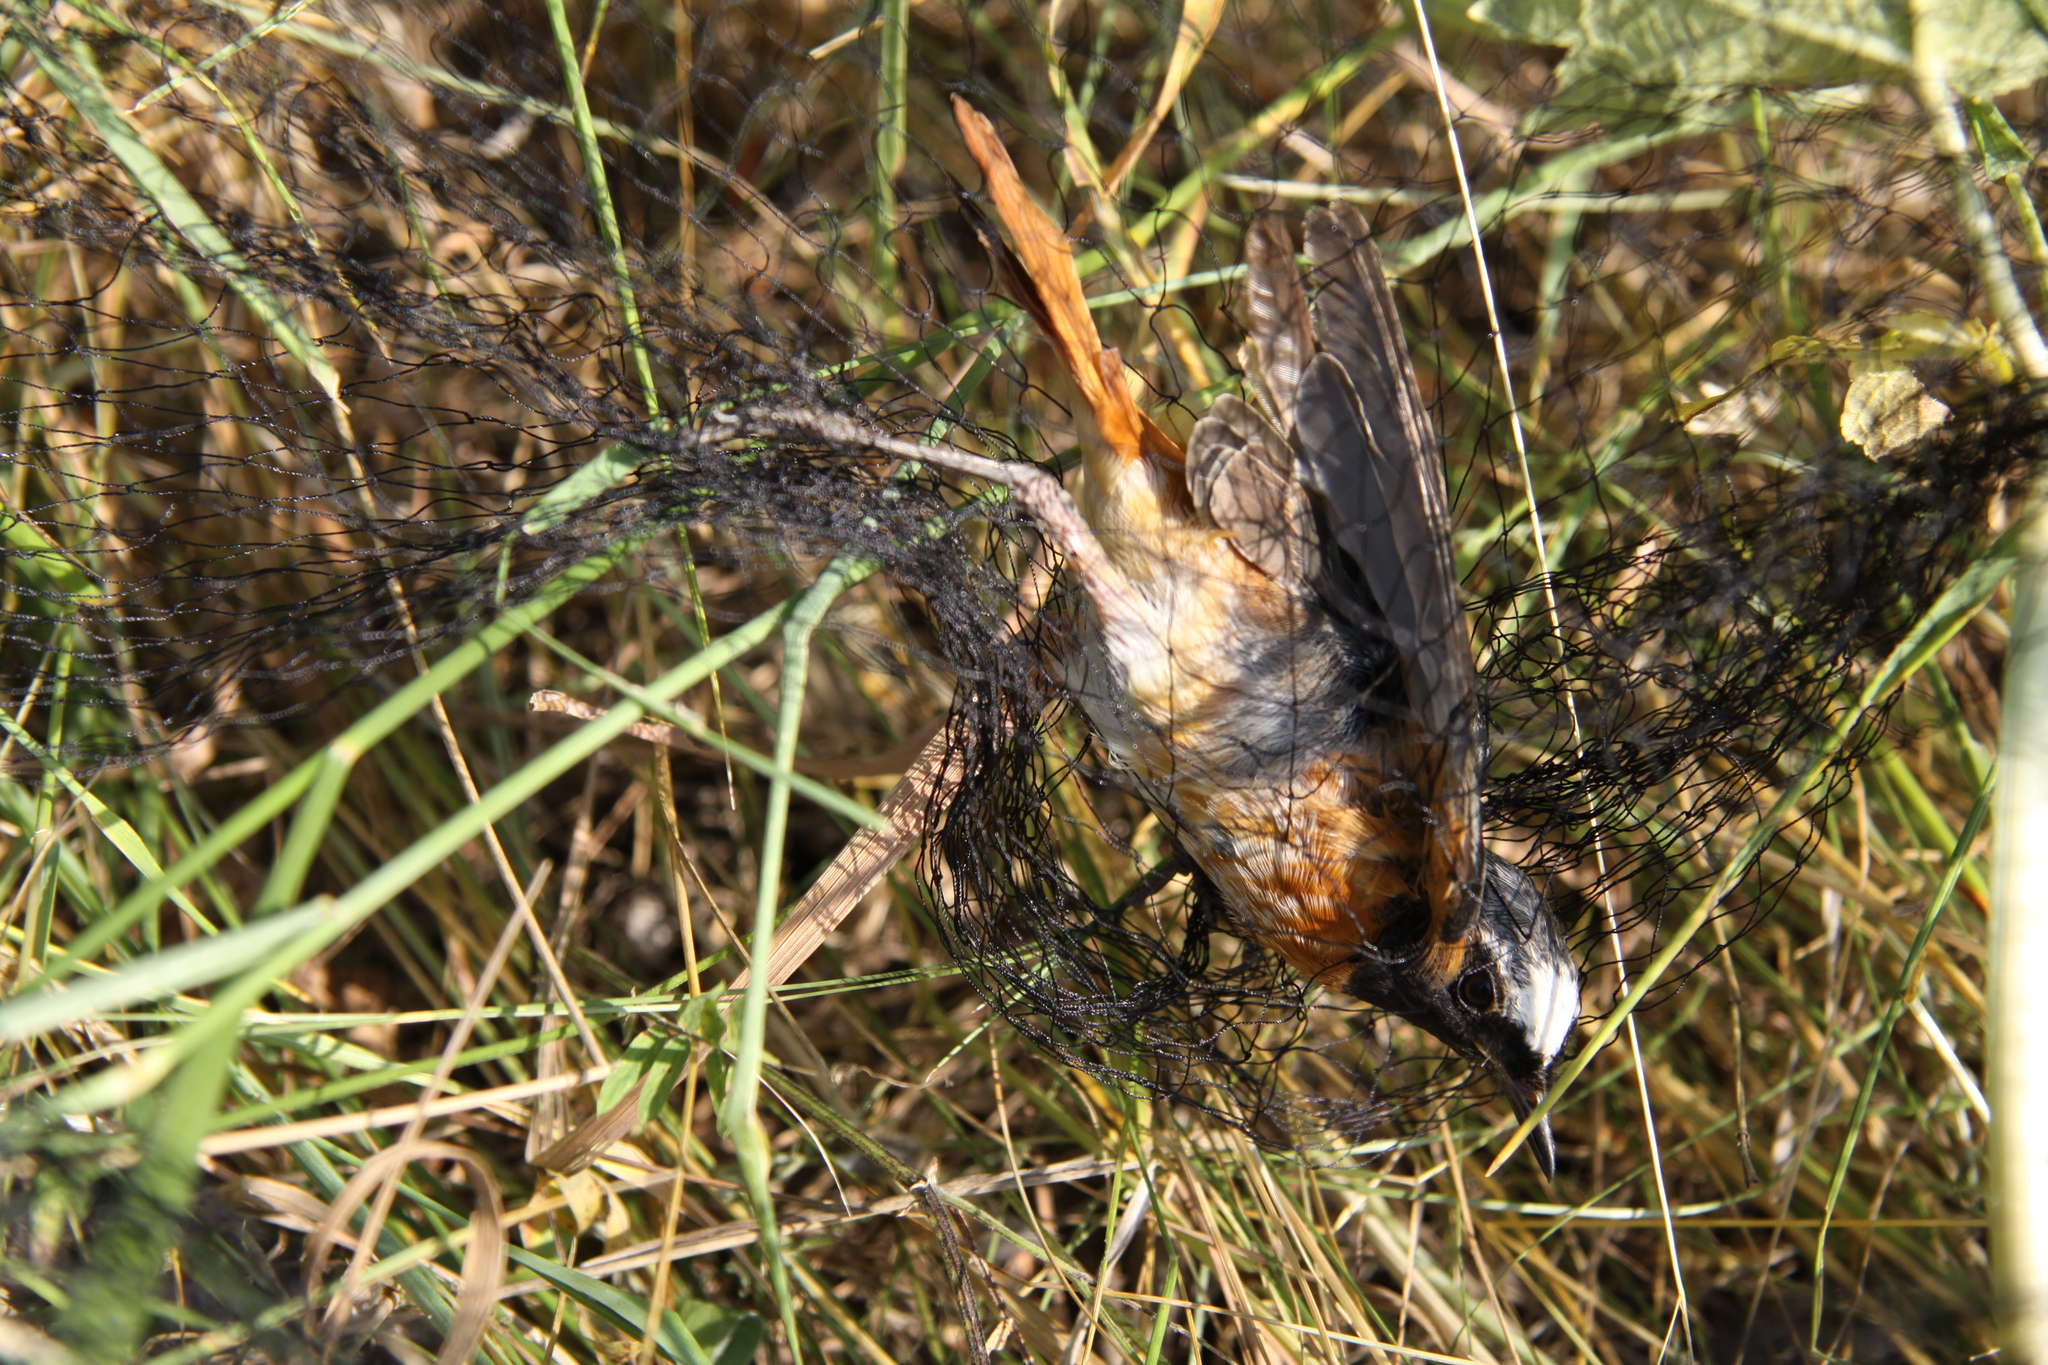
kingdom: Animalia
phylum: Chordata
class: Aves
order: Passeriformes
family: Muscicapidae
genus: Phoenicurus
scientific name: Phoenicurus phoenicurus
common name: Common redstart
